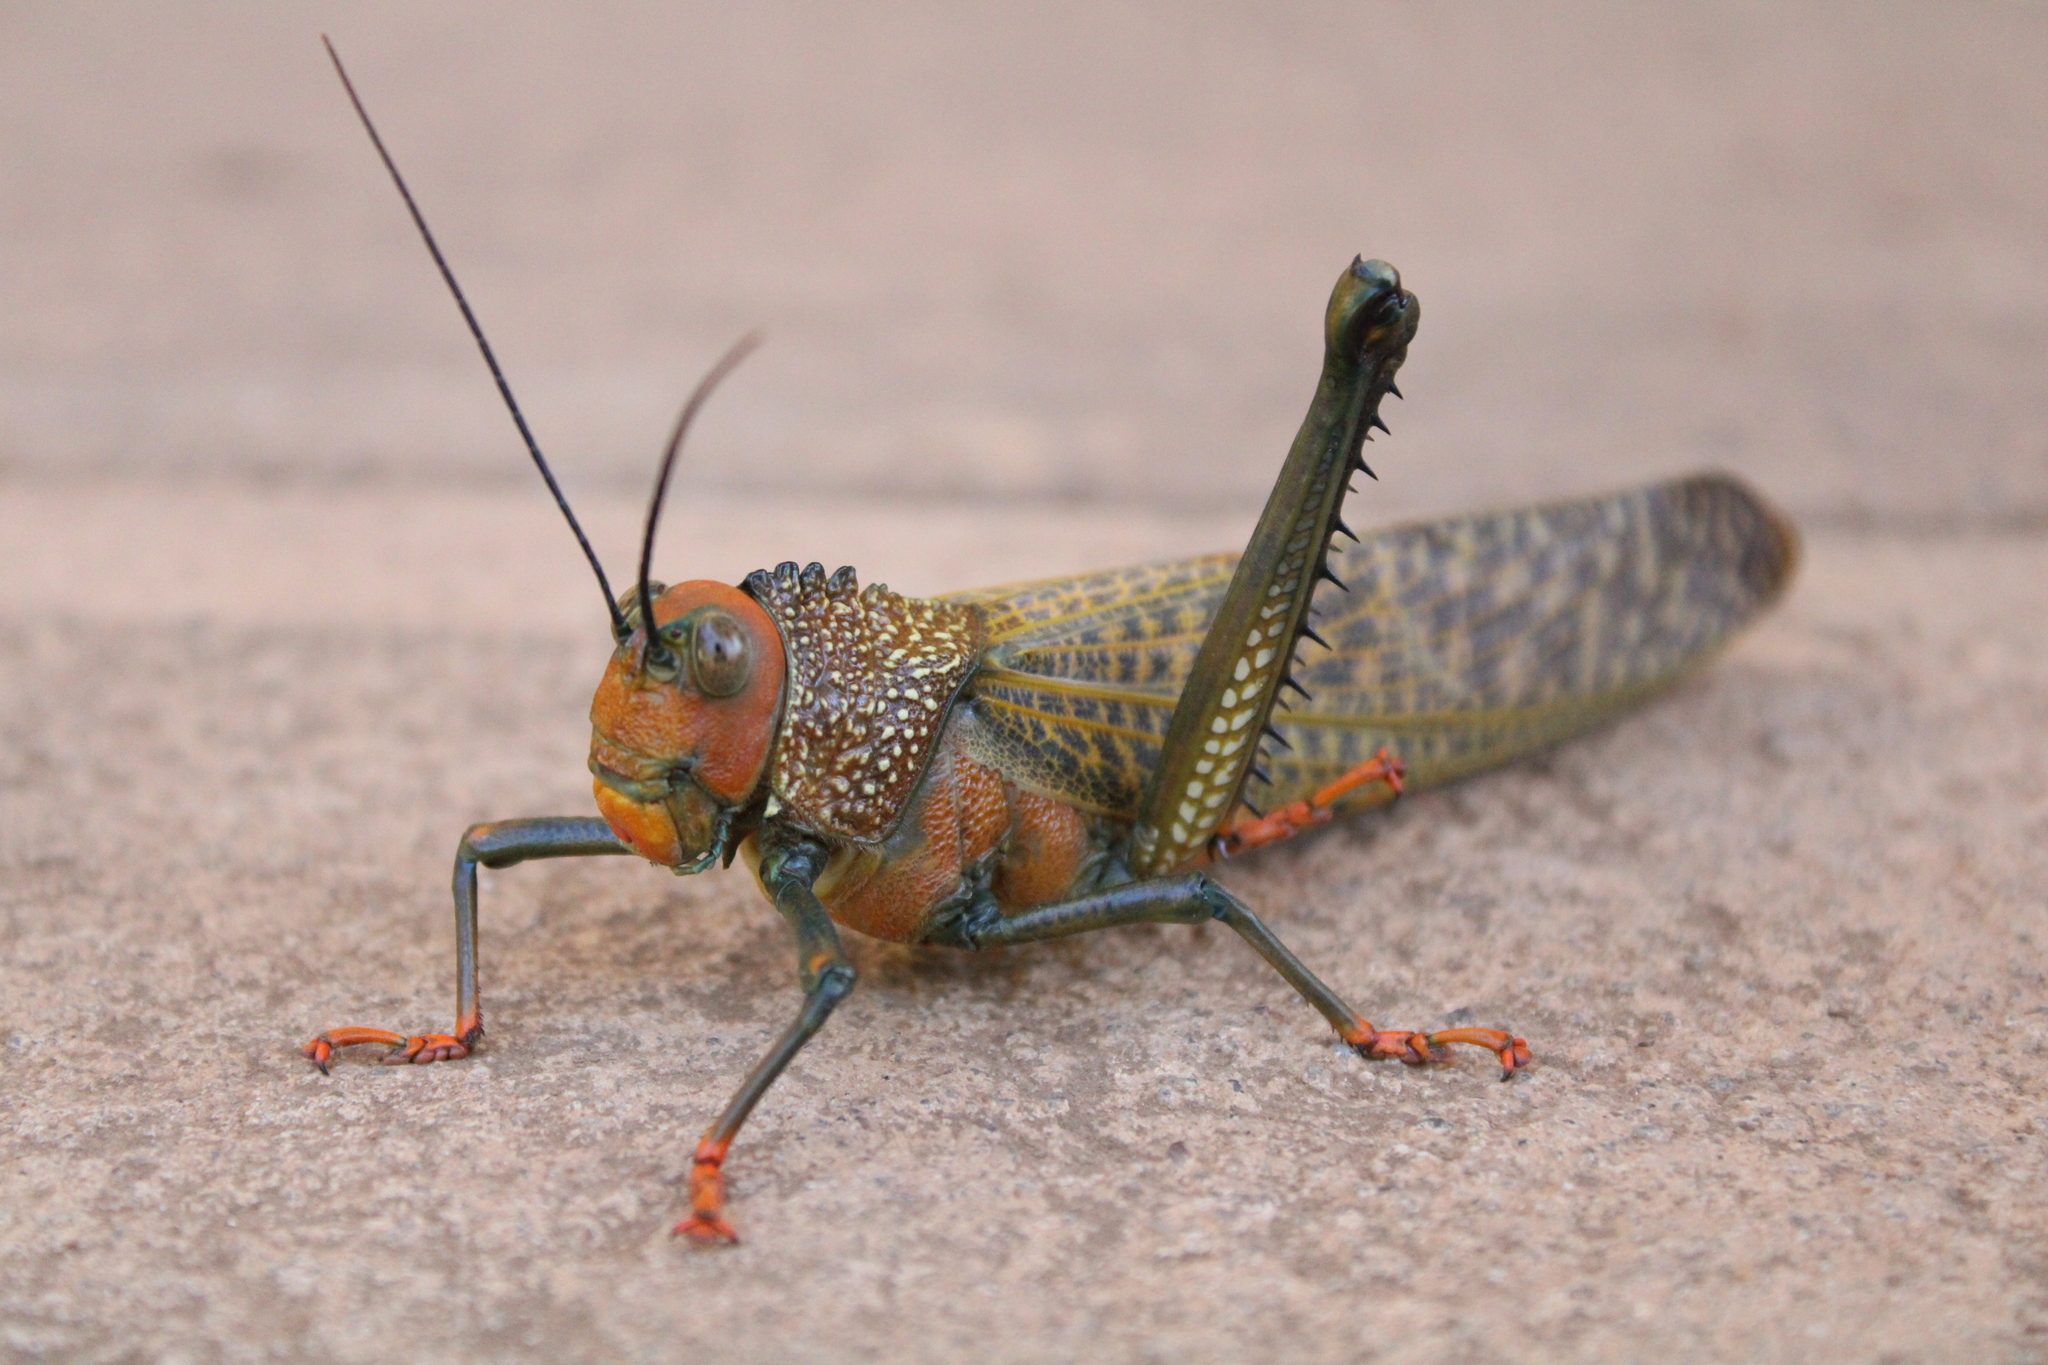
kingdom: Animalia
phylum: Arthropoda
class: Insecta
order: Orthoptera
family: Romaleidae
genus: Tropidacris
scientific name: Tropidacris cristata
